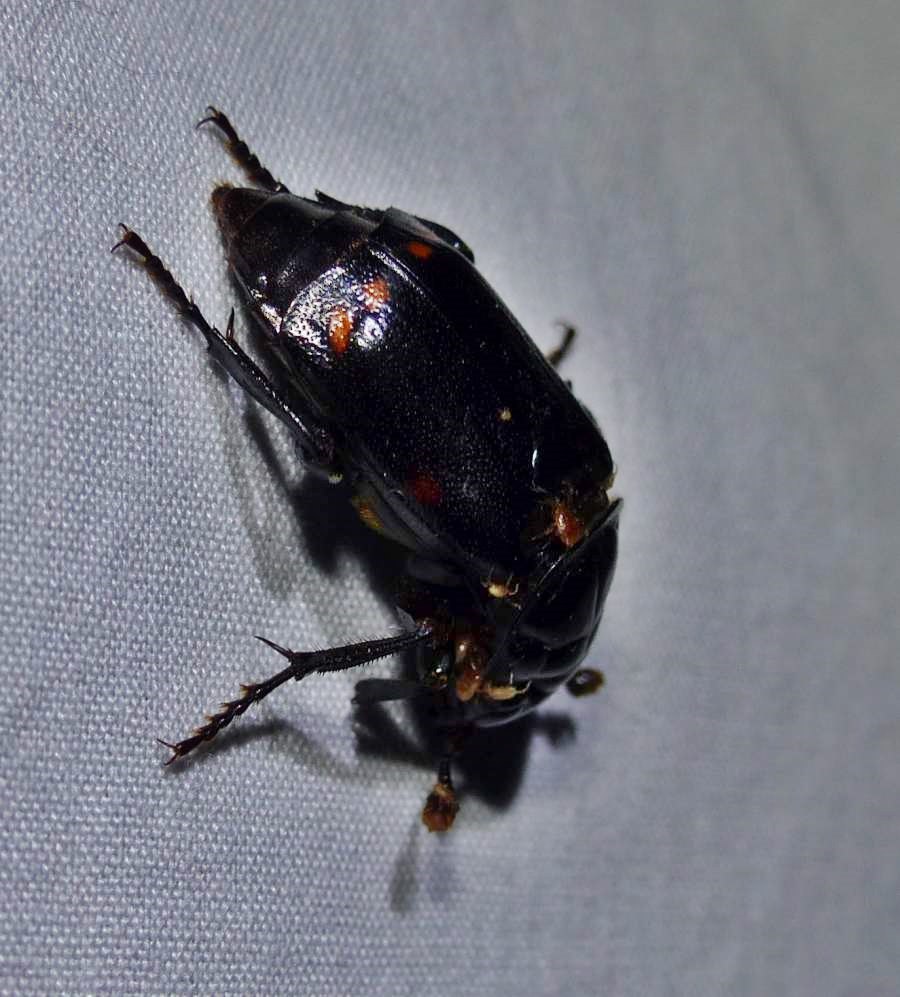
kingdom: Animalia
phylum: Arthropoda
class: Insecta
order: Coleoptera
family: Staphylinidae
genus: Nicrophorus
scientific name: Nicrophorus pustulatus
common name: Pustulated carrion beetle
